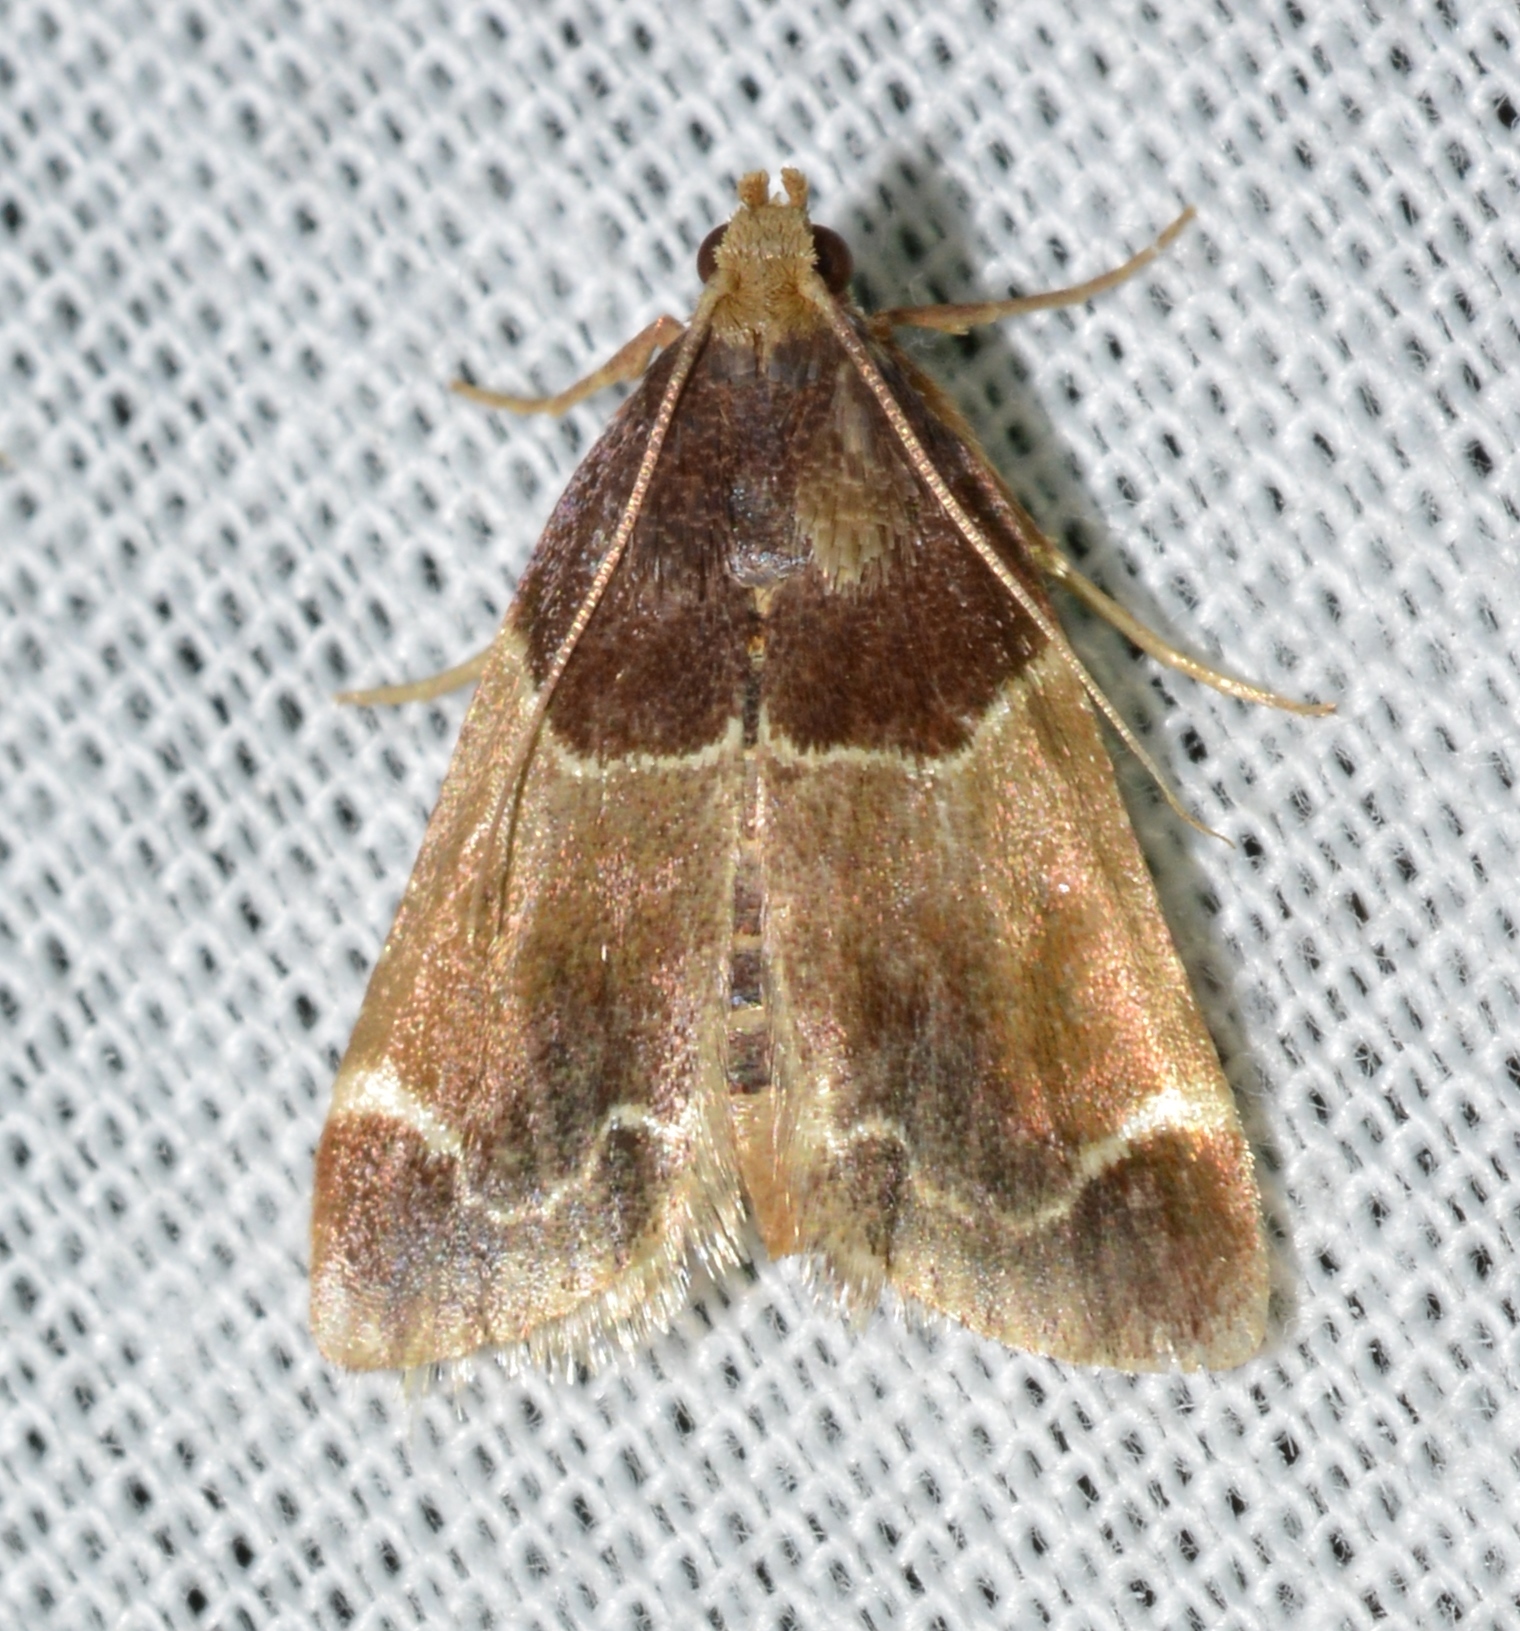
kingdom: Animalia
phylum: Arthropoda
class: Insecta
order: Lepidoptera
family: Pyralidae
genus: Pyralis
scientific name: Pyralis farinalis
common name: Meal moth
